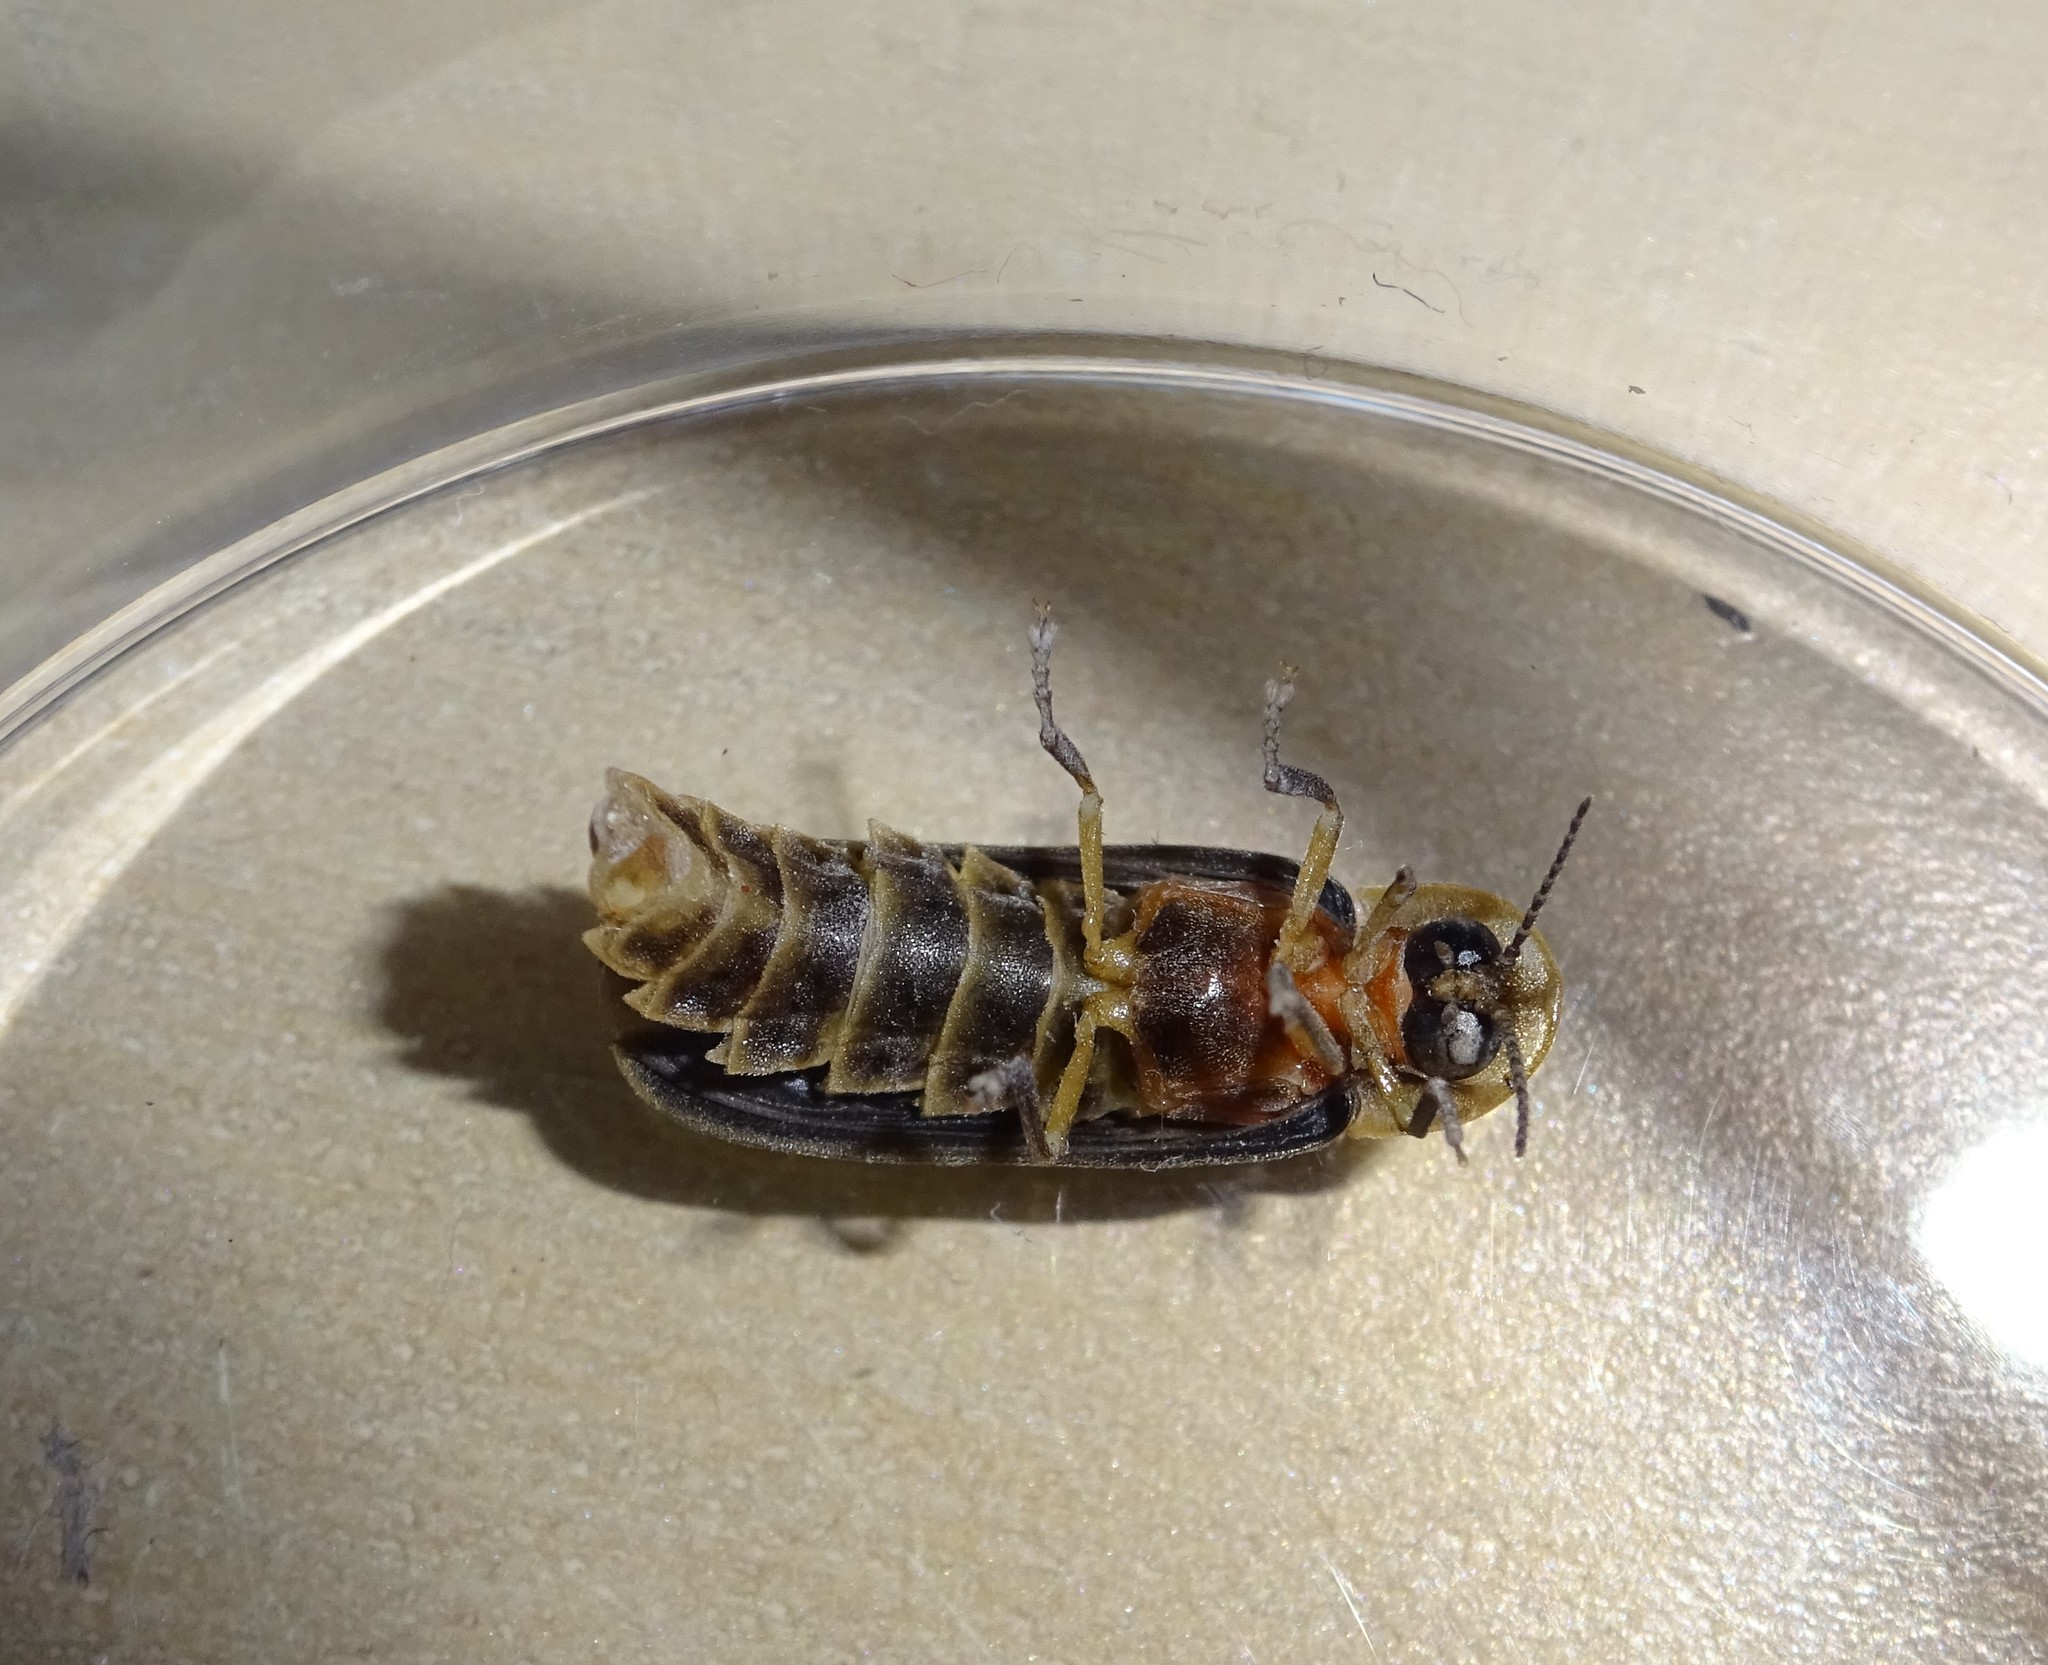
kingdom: Animalia
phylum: Arthropoda
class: Insecta
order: Coleoptera
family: Lampyridae
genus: Lampyris
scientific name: Lampyris noctiluca
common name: Glow-worm
